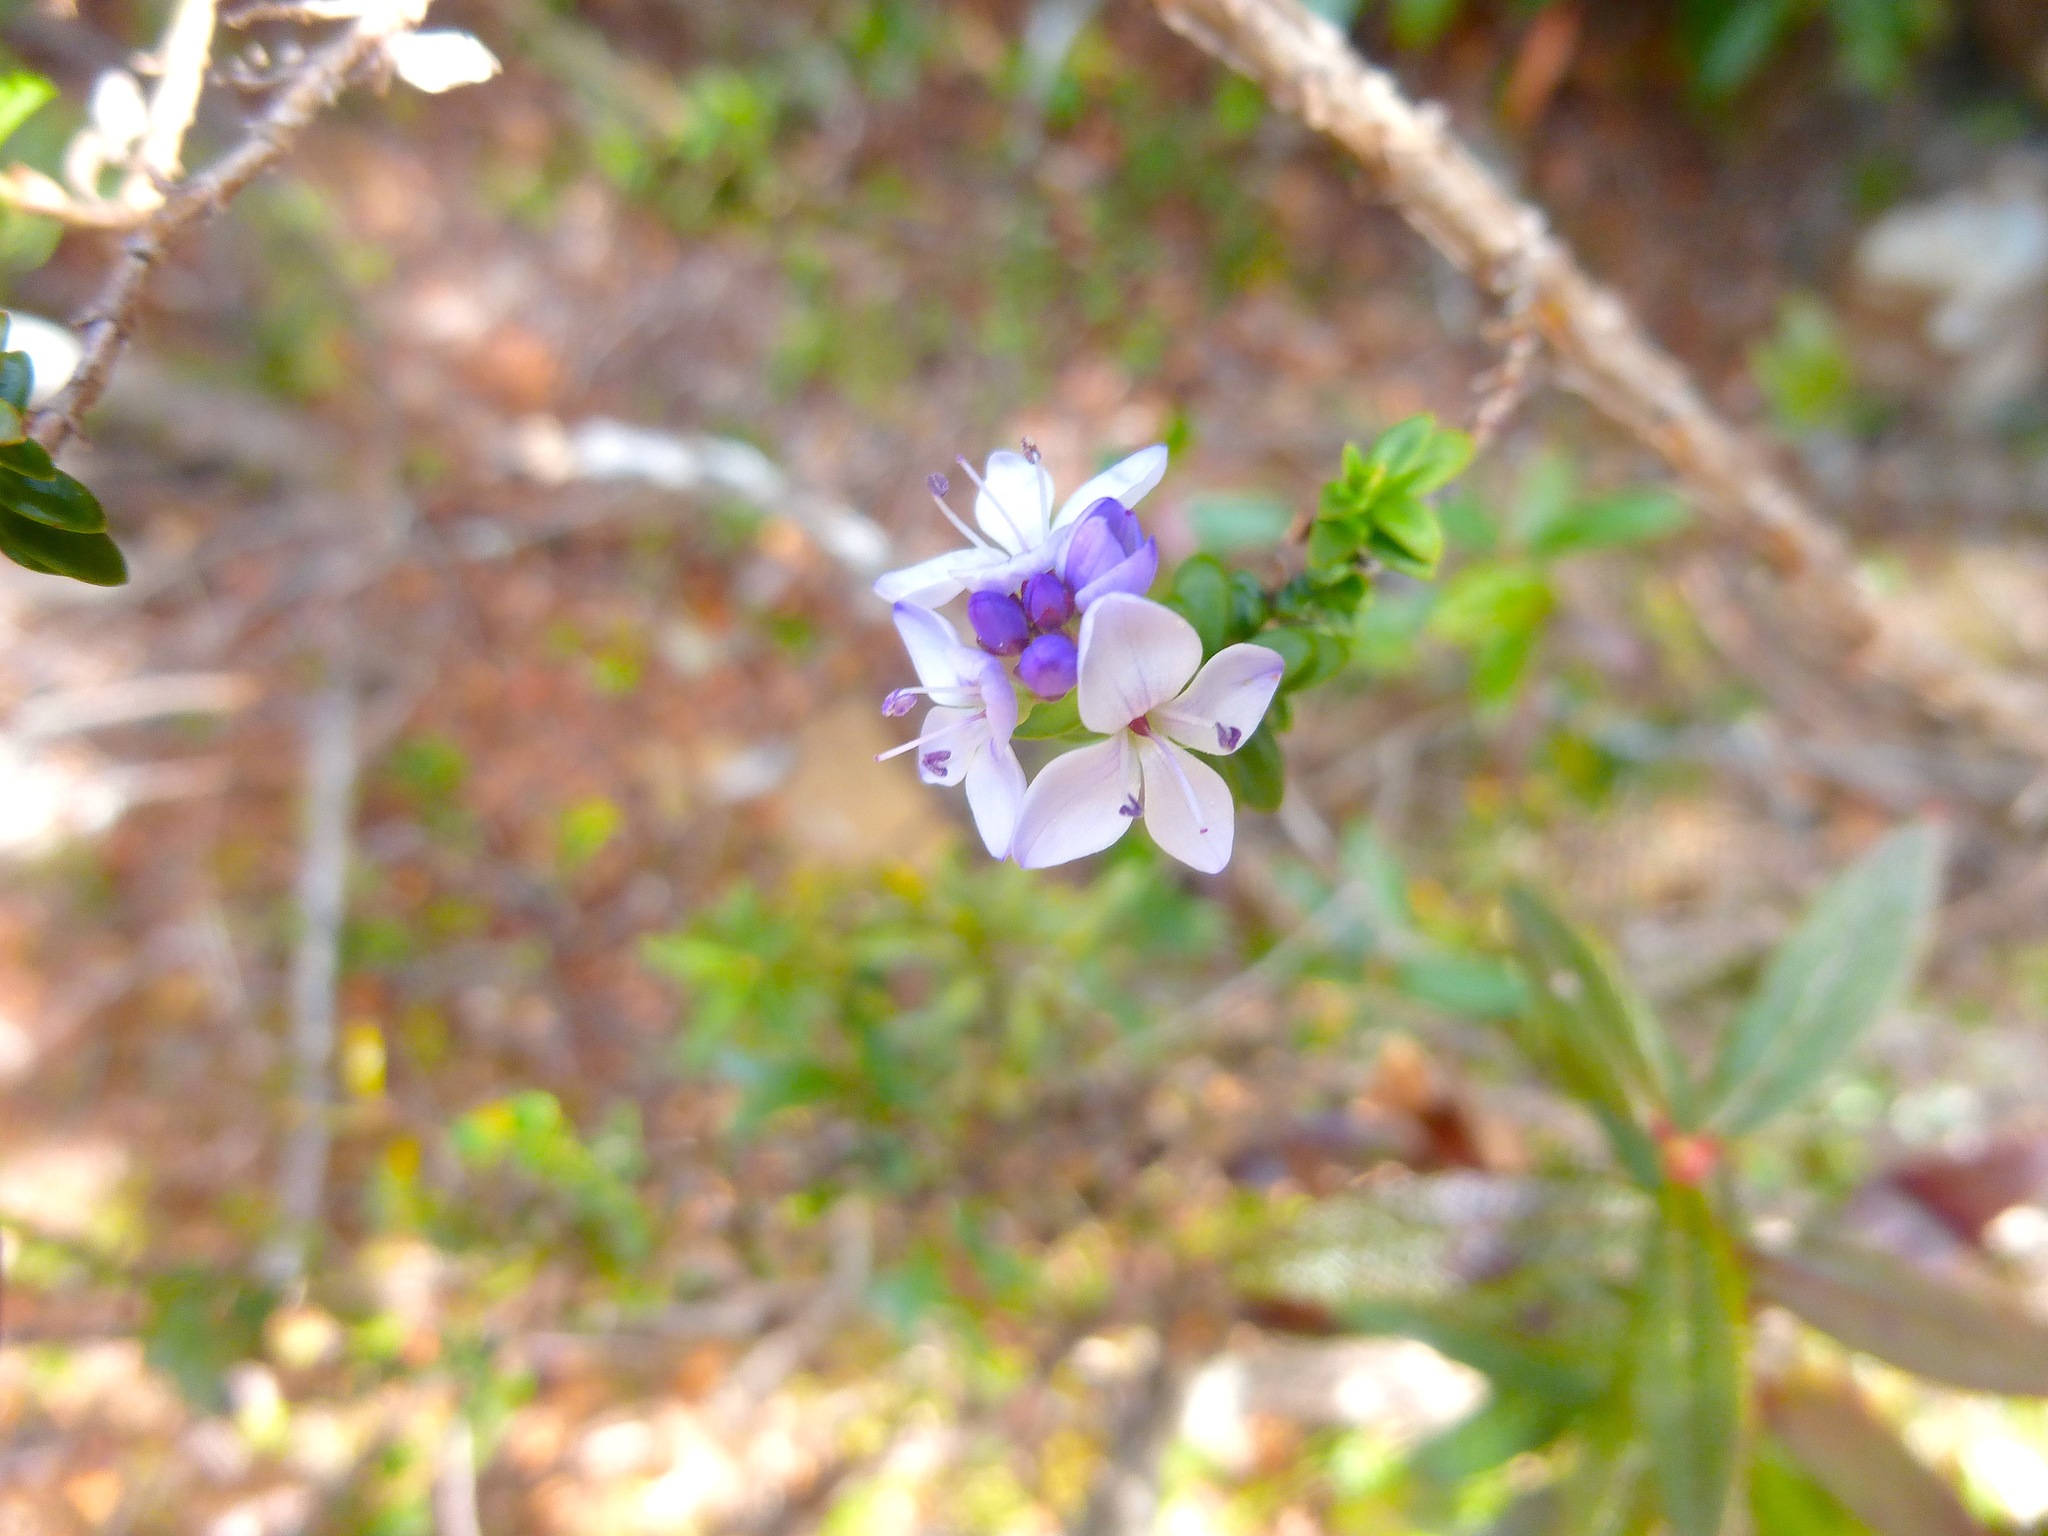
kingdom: Plantae
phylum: Tracheophyta
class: Magnoliopsida
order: Lamiales
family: Plantaginaceae
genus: Veronica
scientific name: Veronica formosa
